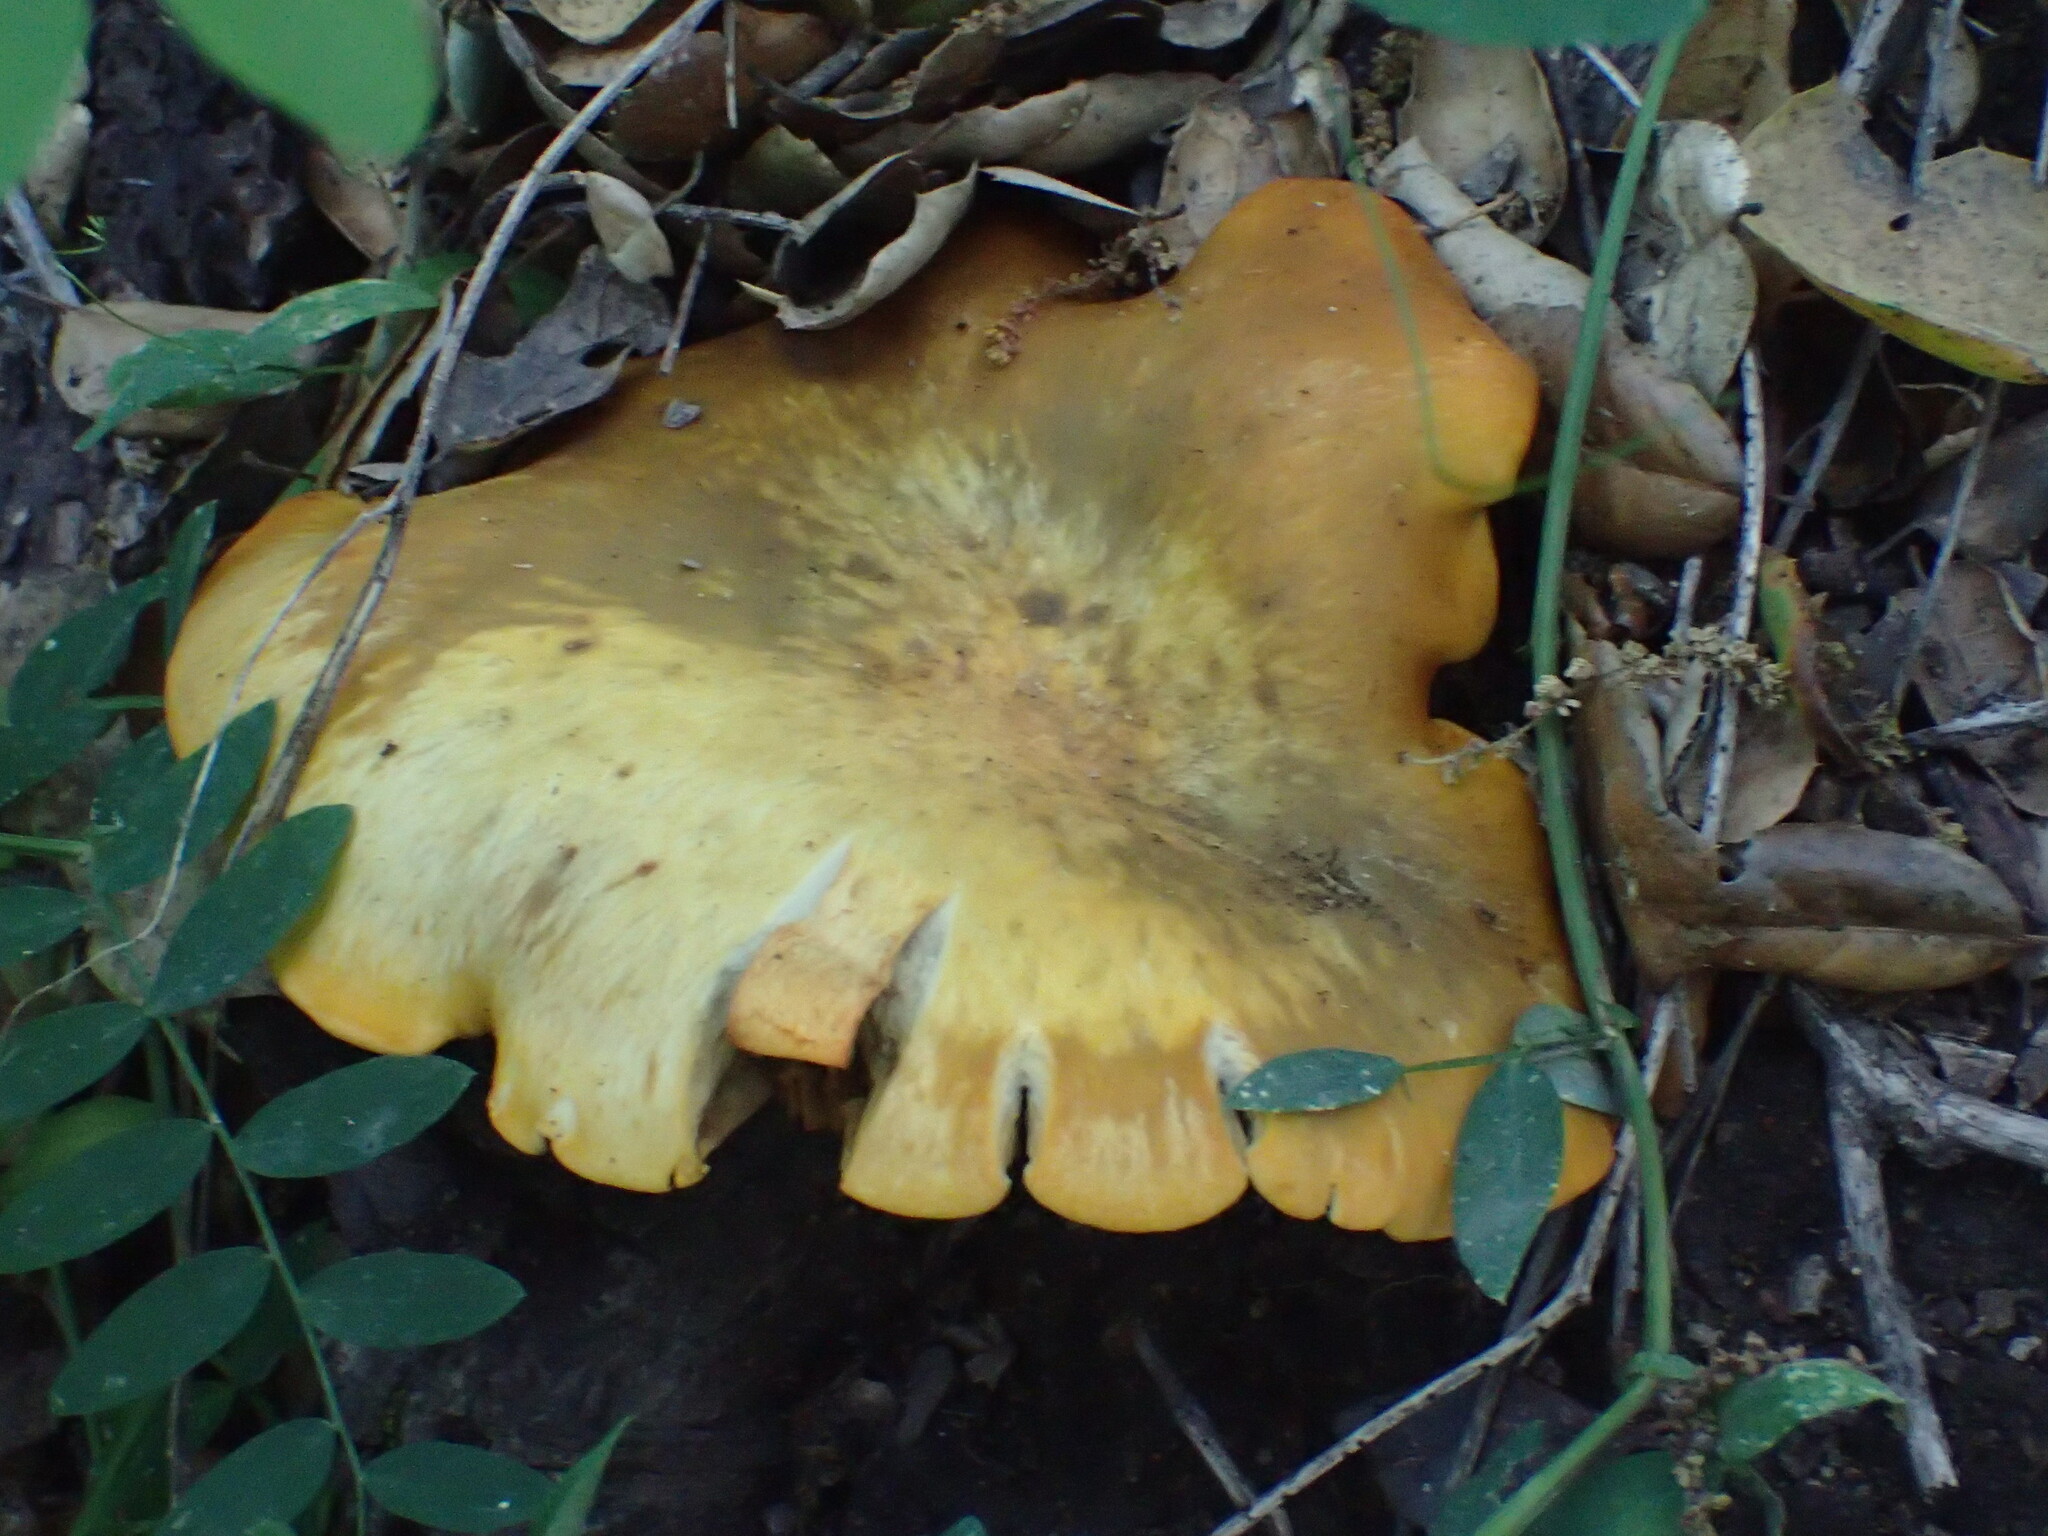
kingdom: Fungi
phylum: Basidiomycota
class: Agaricomycetes
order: Agaricales
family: Omphalotaceae
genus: Omphalotus
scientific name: Omphalotus olivascens
